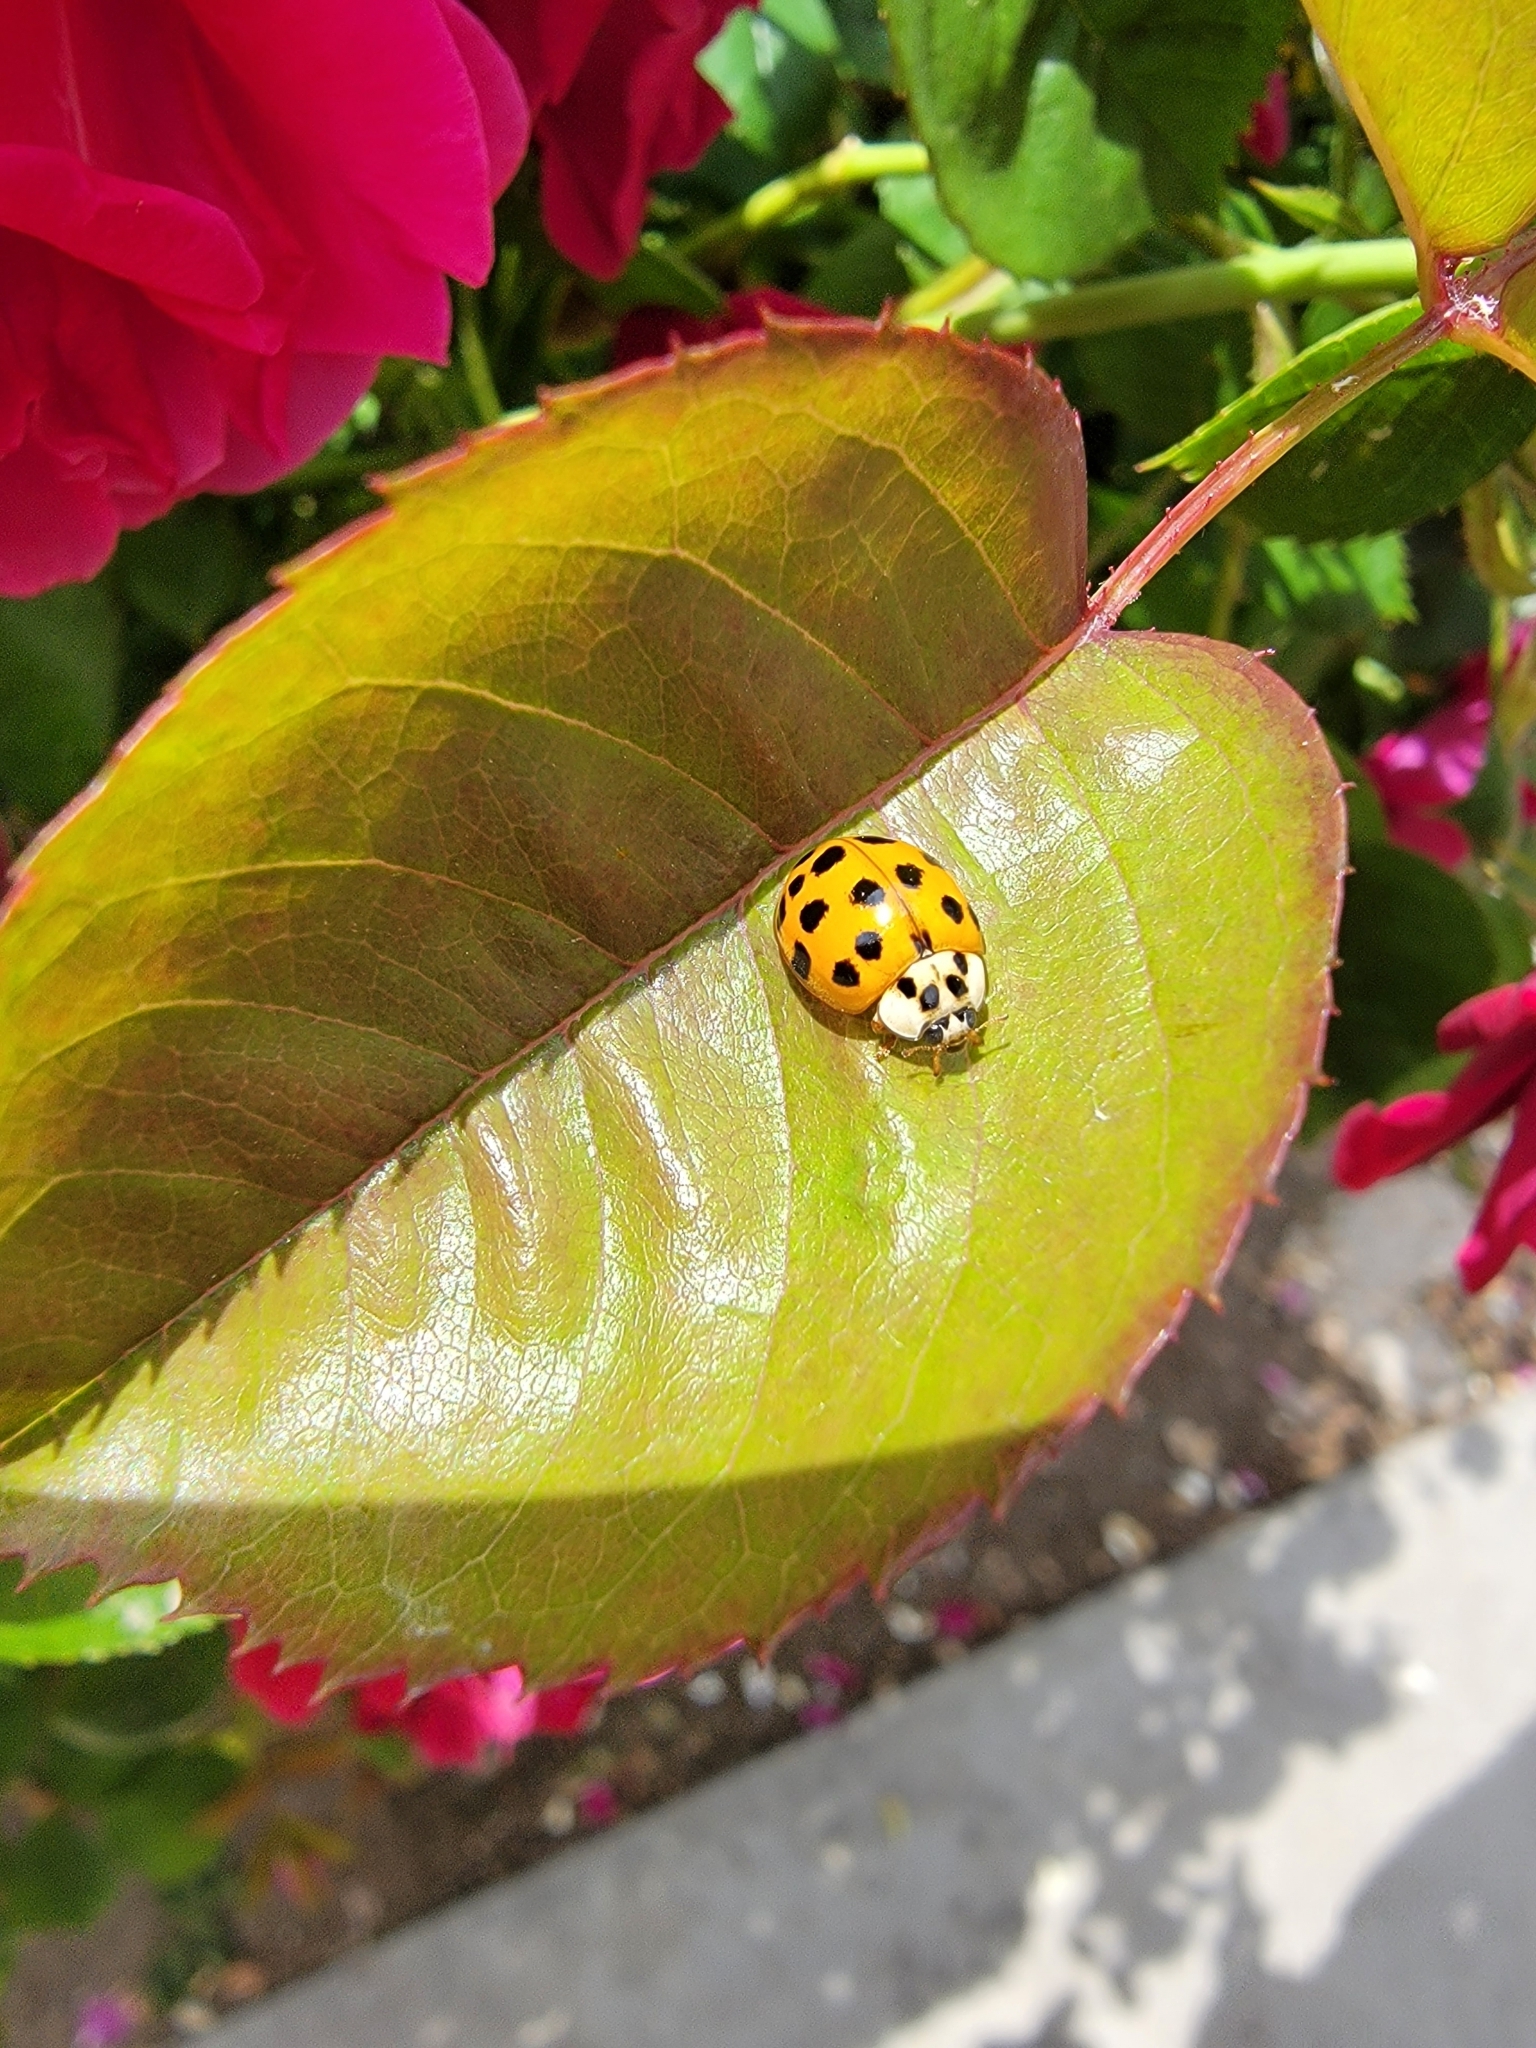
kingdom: Animalia
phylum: Arthropoda
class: Insecta
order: Coleoptera
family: Coccinellidae
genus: Harmonia
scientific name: Harmonia axyridis
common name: Harlequin ladybird
